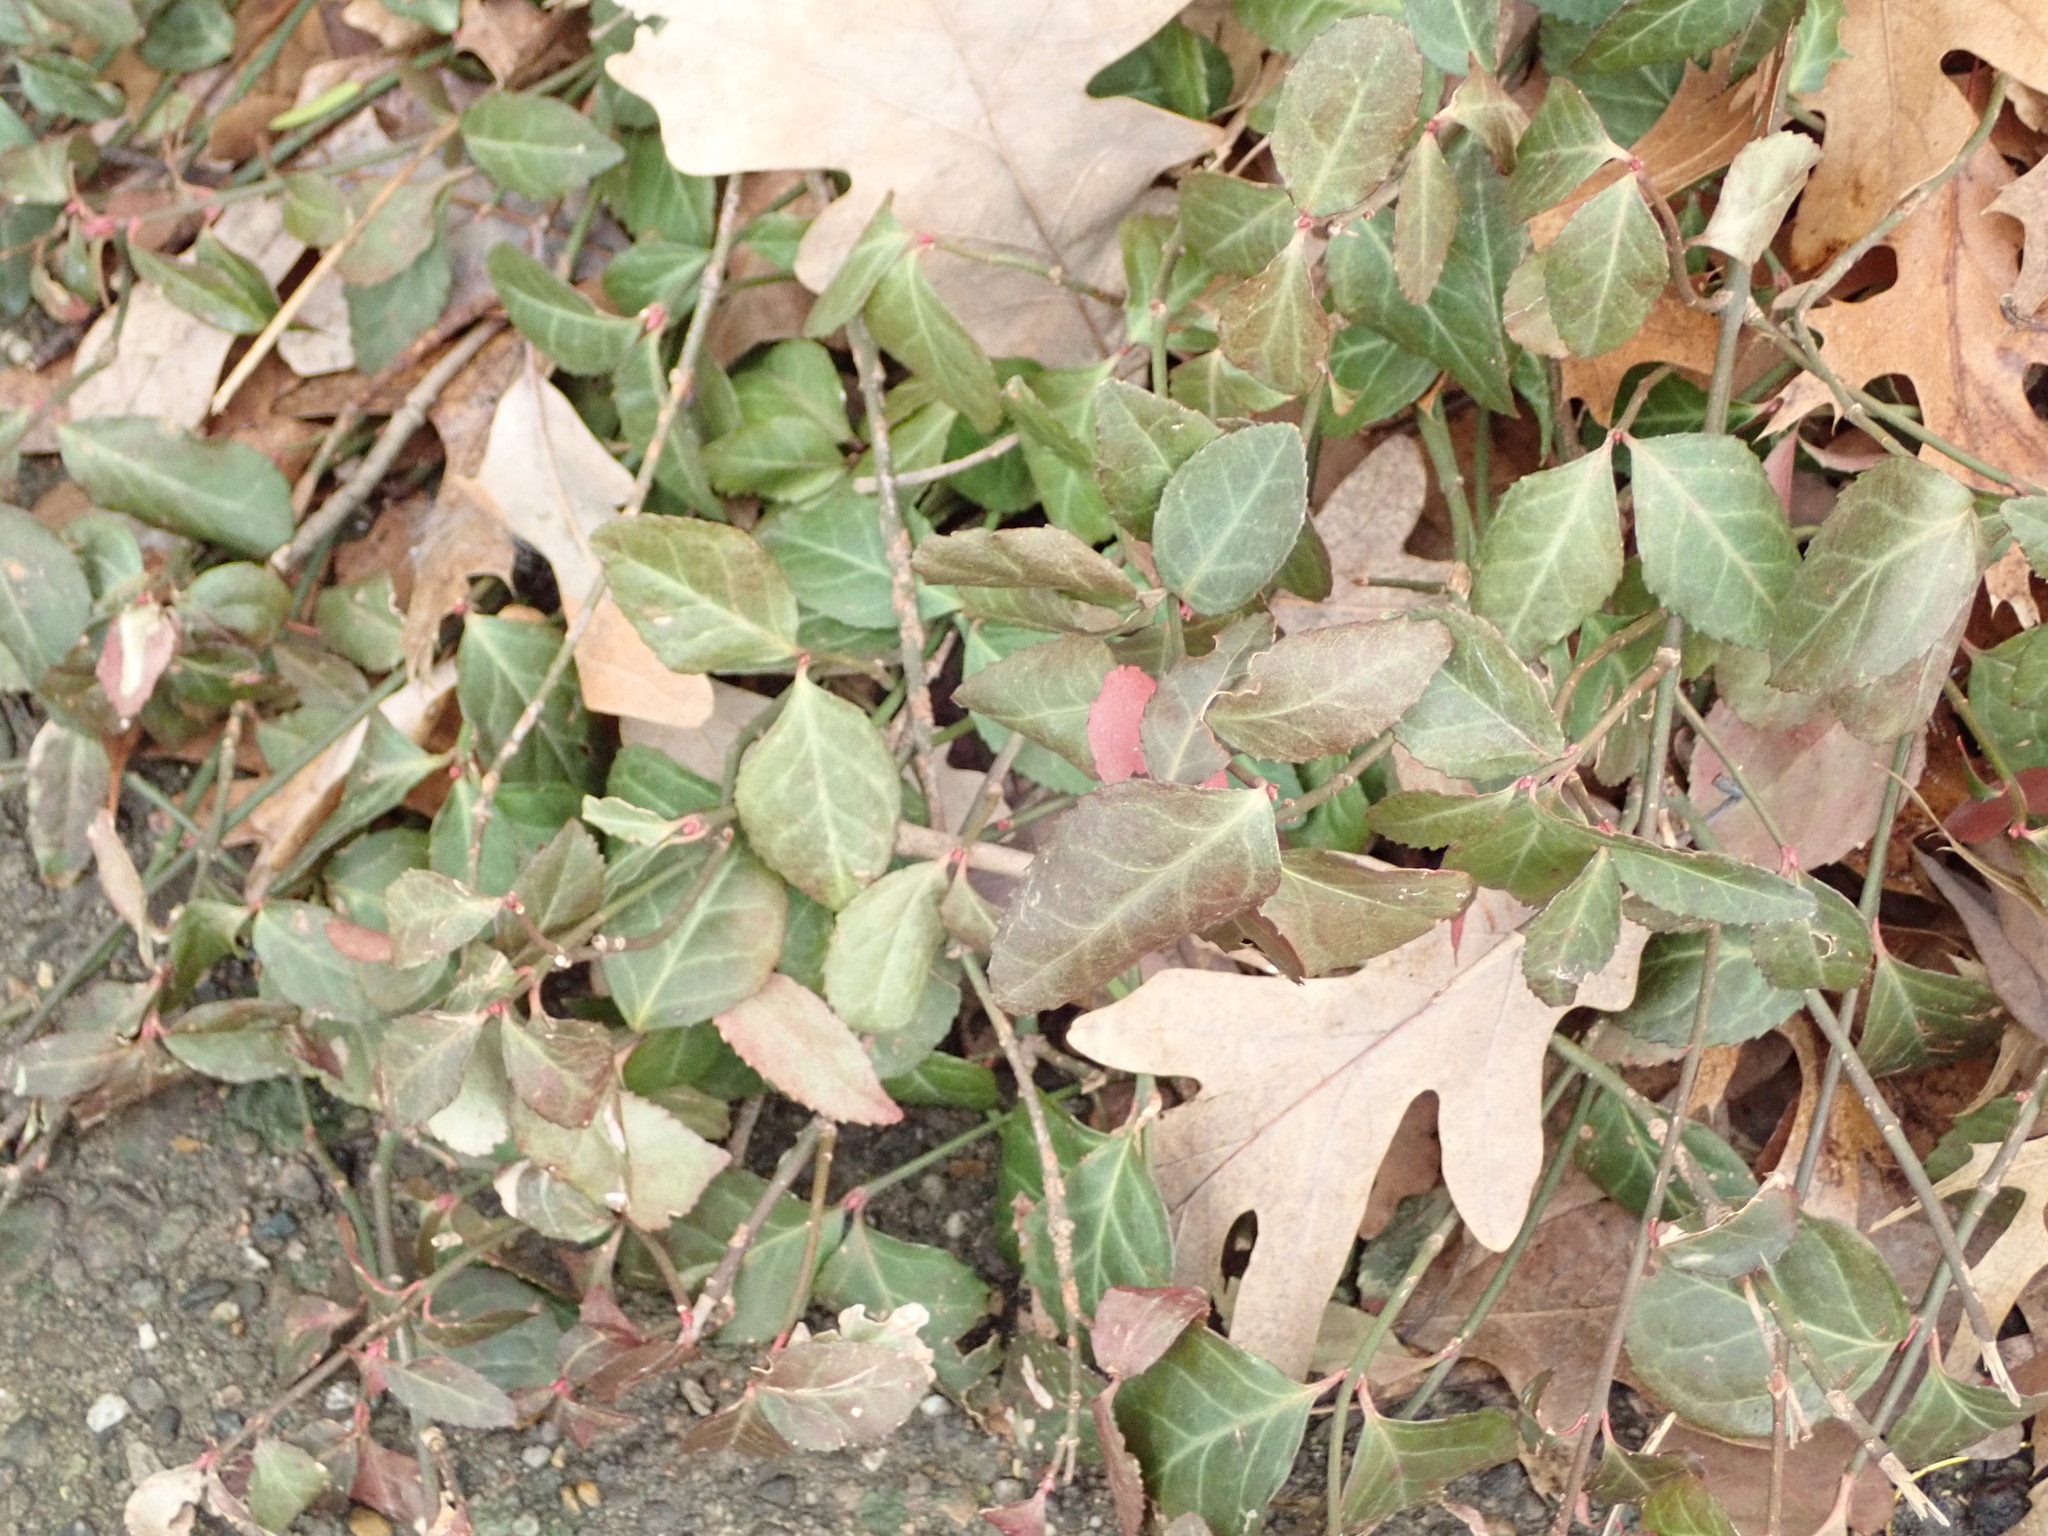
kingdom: Plantae
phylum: Tracheophyta
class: Magnoliopsida
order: Celastrales
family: Celastraceae
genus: Euonymus
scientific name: Euonymus fortunei
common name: Climbing euonymus
